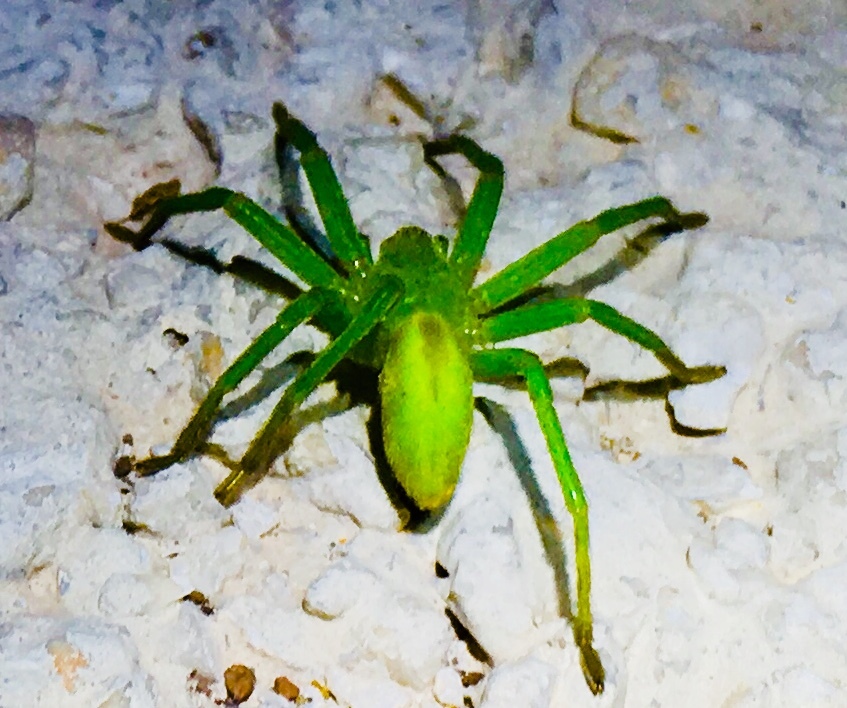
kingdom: Animalia
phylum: Arthropoda
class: Arachnida
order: Araneae
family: Sparassidae
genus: Micrommata
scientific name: Micrommata virescens
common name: Green spider
